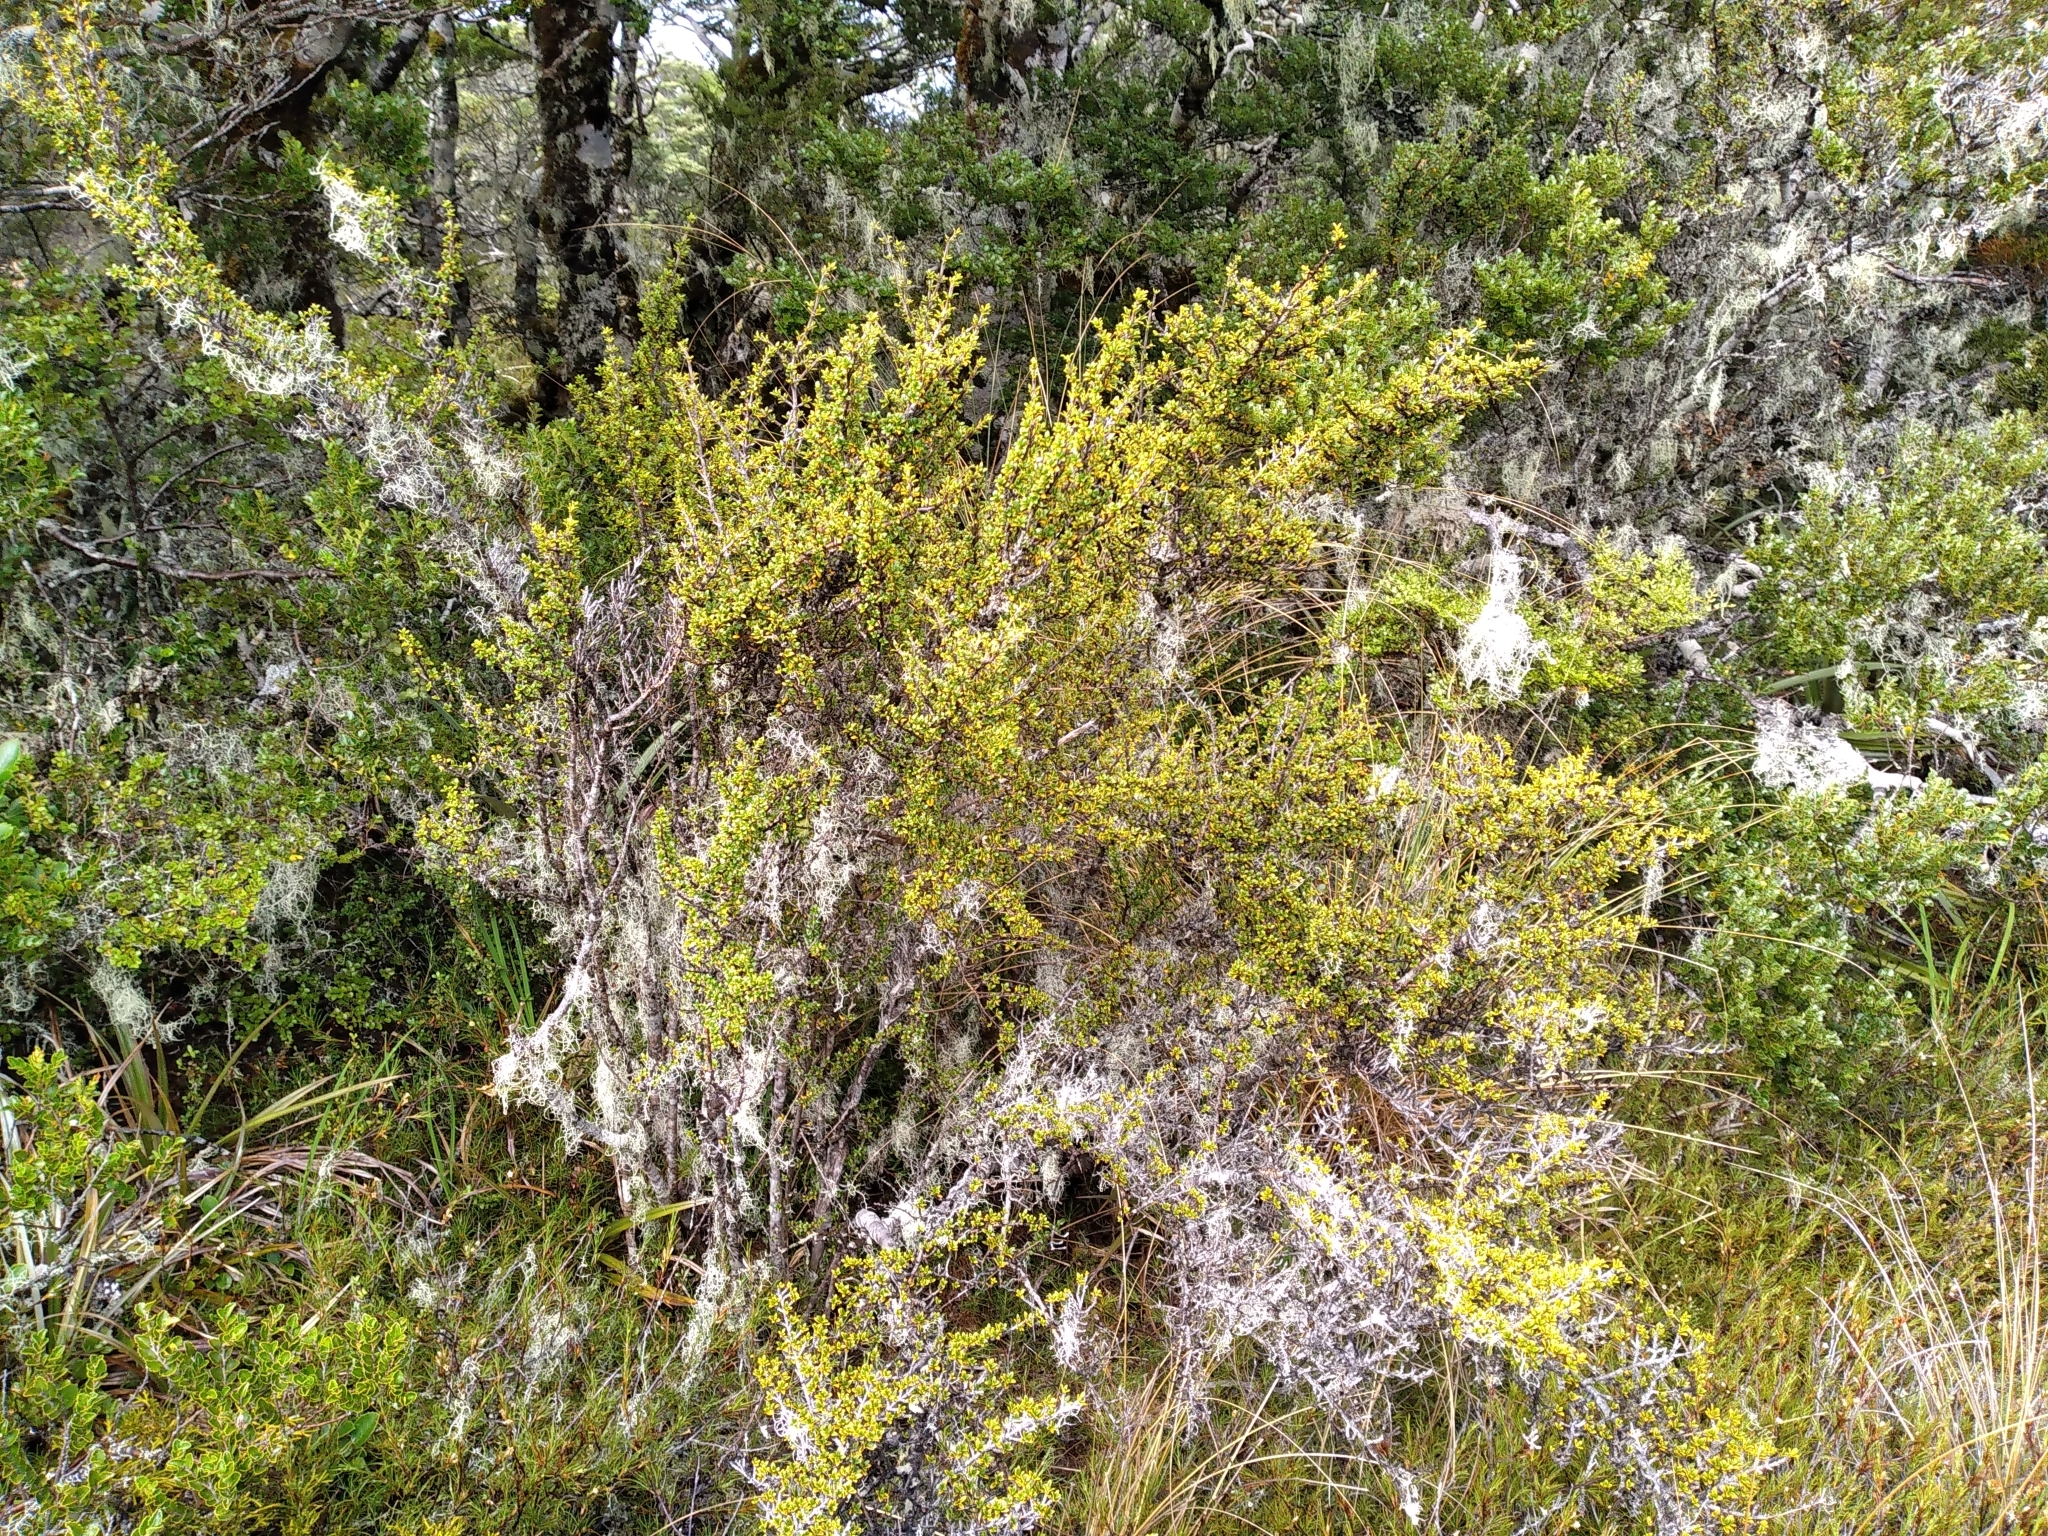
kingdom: Plantae
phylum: Tracheophyta
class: Magnoliopsida
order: Gentianales
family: Rubiaceae
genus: Coprosma
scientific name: Coprosma pseudocuneata
